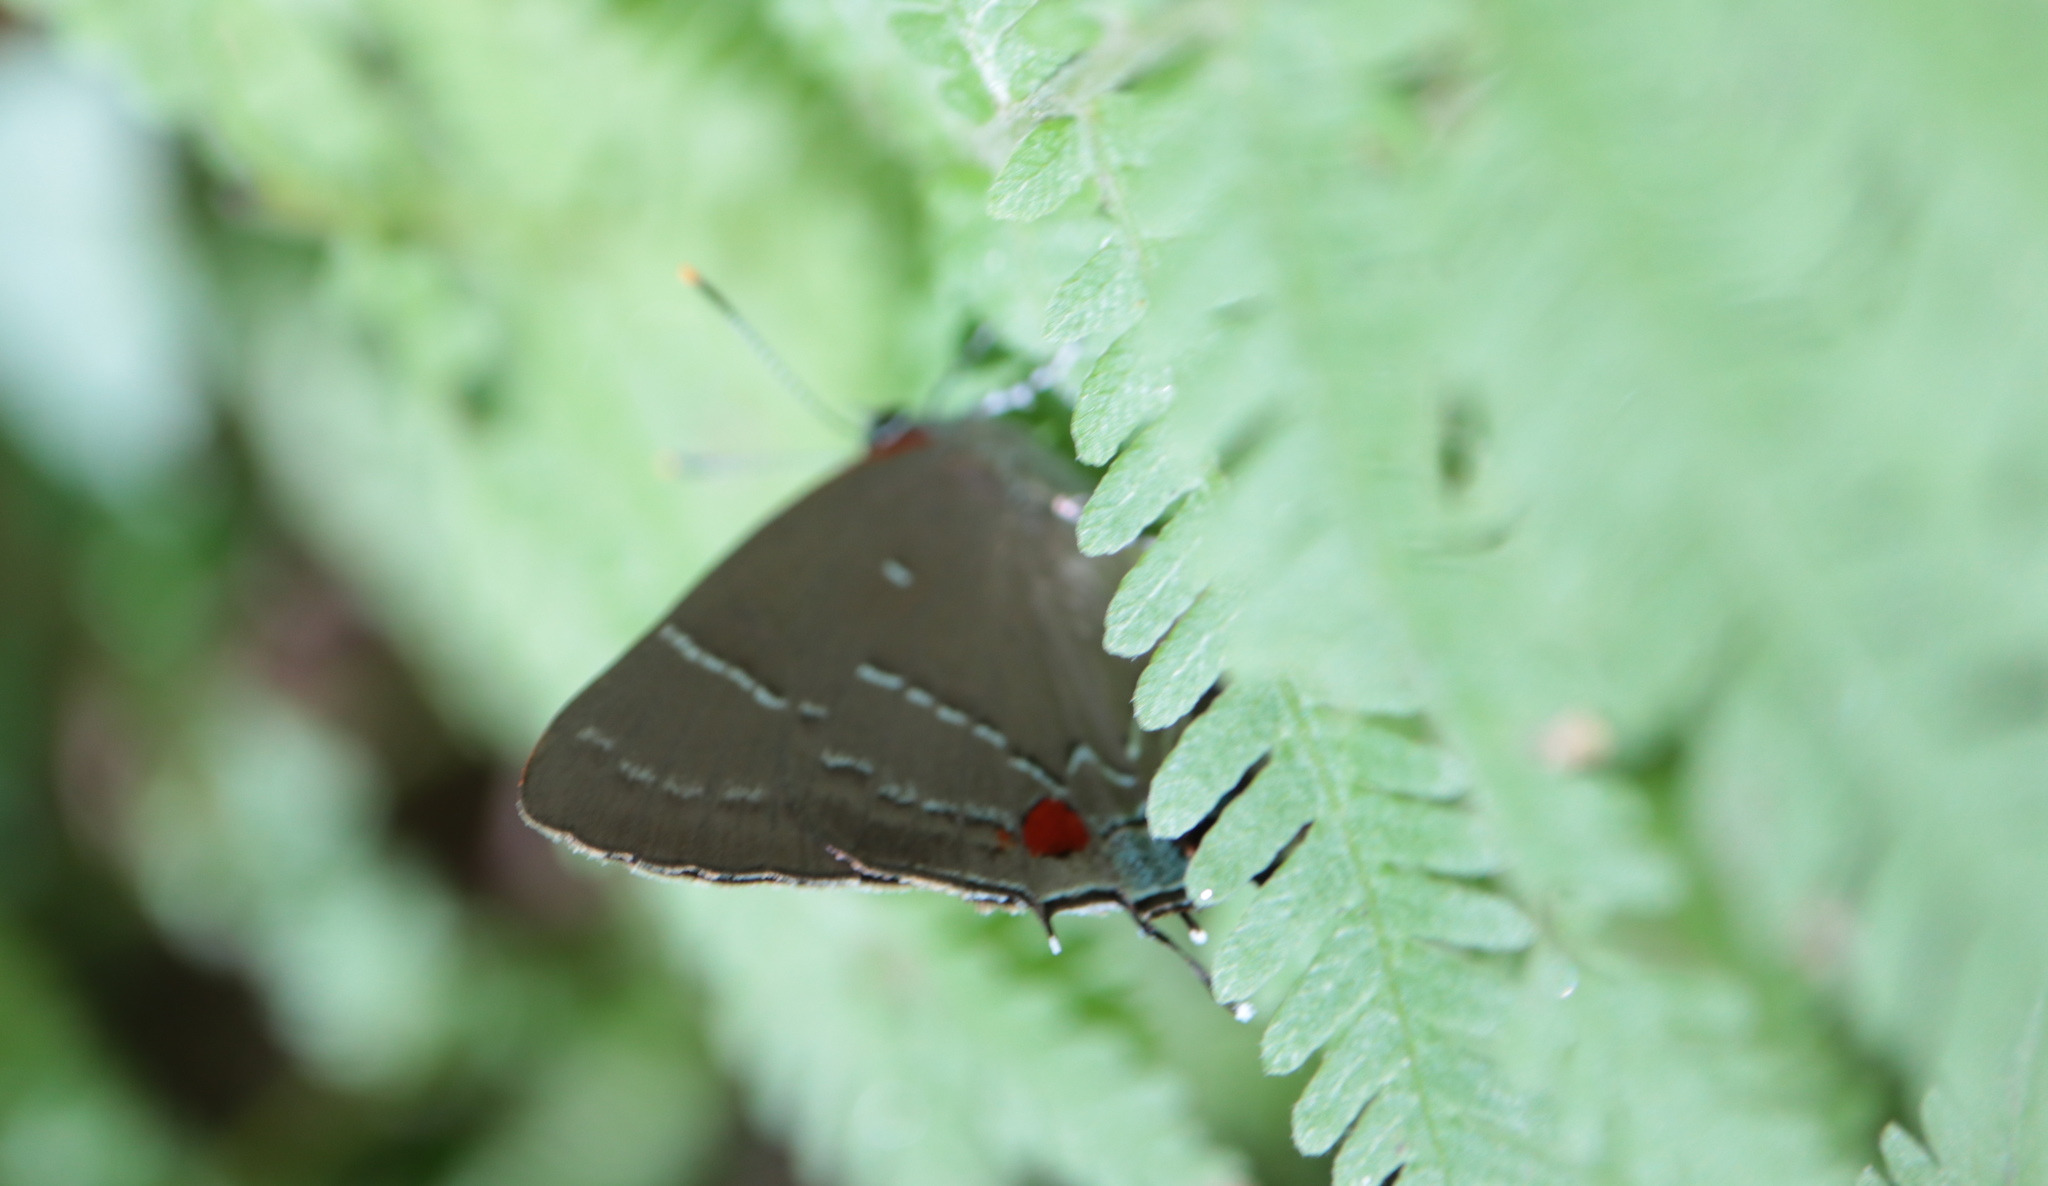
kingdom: Animalia
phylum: Arthropoda
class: Insecta
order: Lepidoptera
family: Lycaenidae
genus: Parrhasius
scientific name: Parrhasius m-album
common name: White m hairstreak
